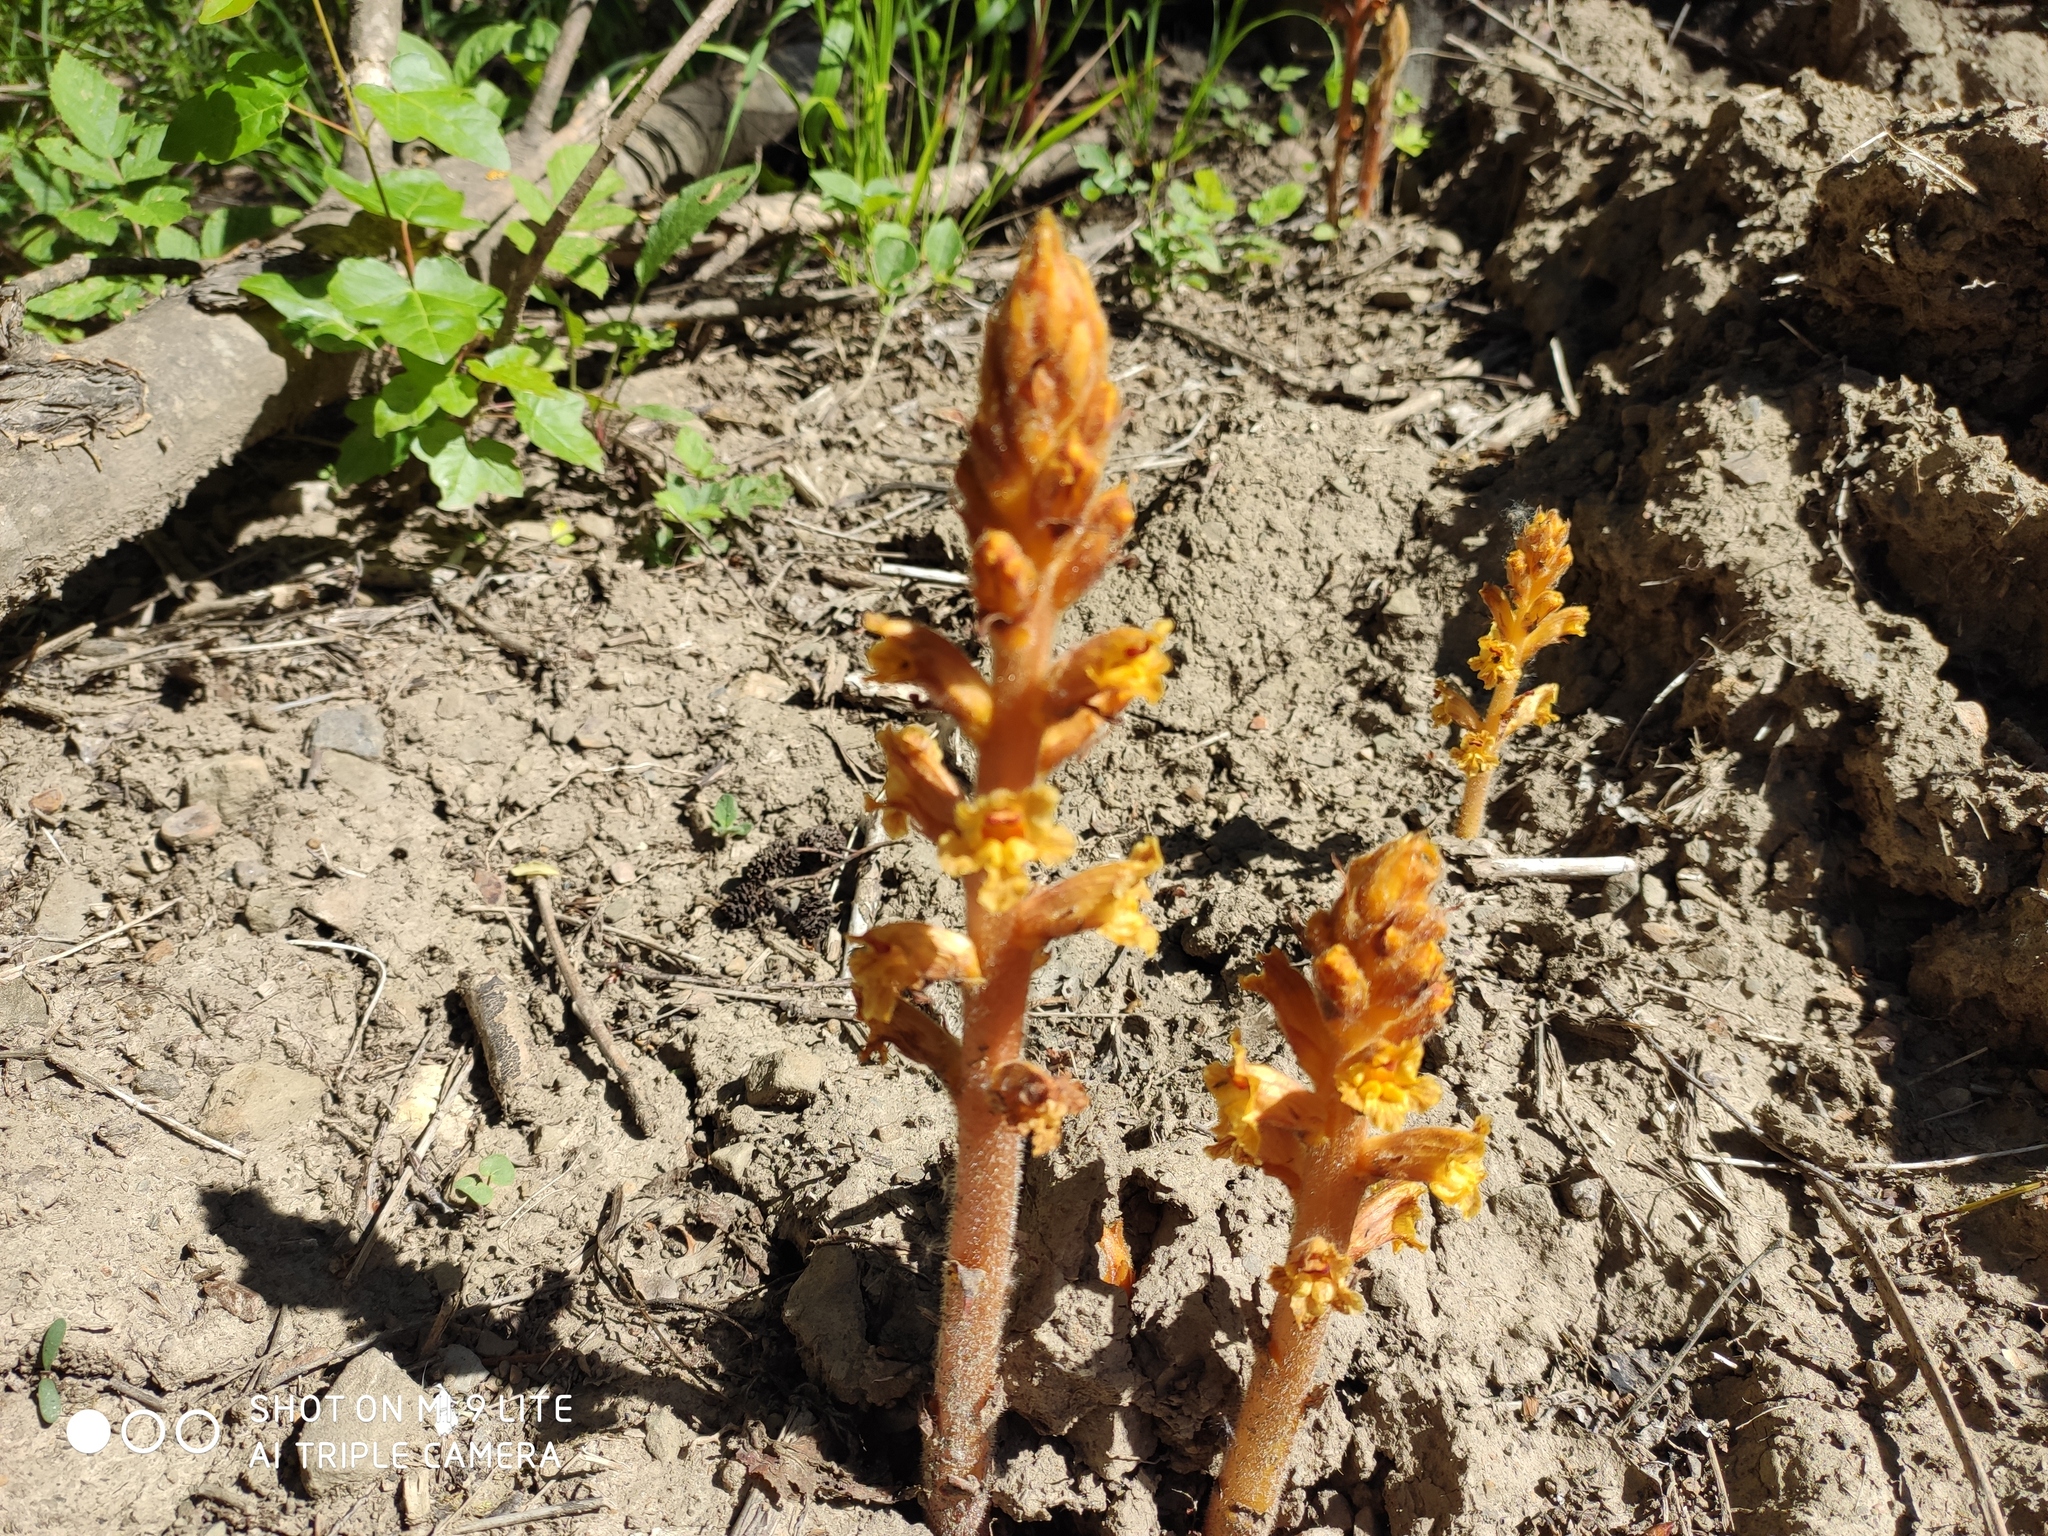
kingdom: Plantae
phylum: Tracheophyta
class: Magnoliopsida
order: Lamiales
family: Orobanchaceae
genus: Orobanche
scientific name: Orobanche laxissima
